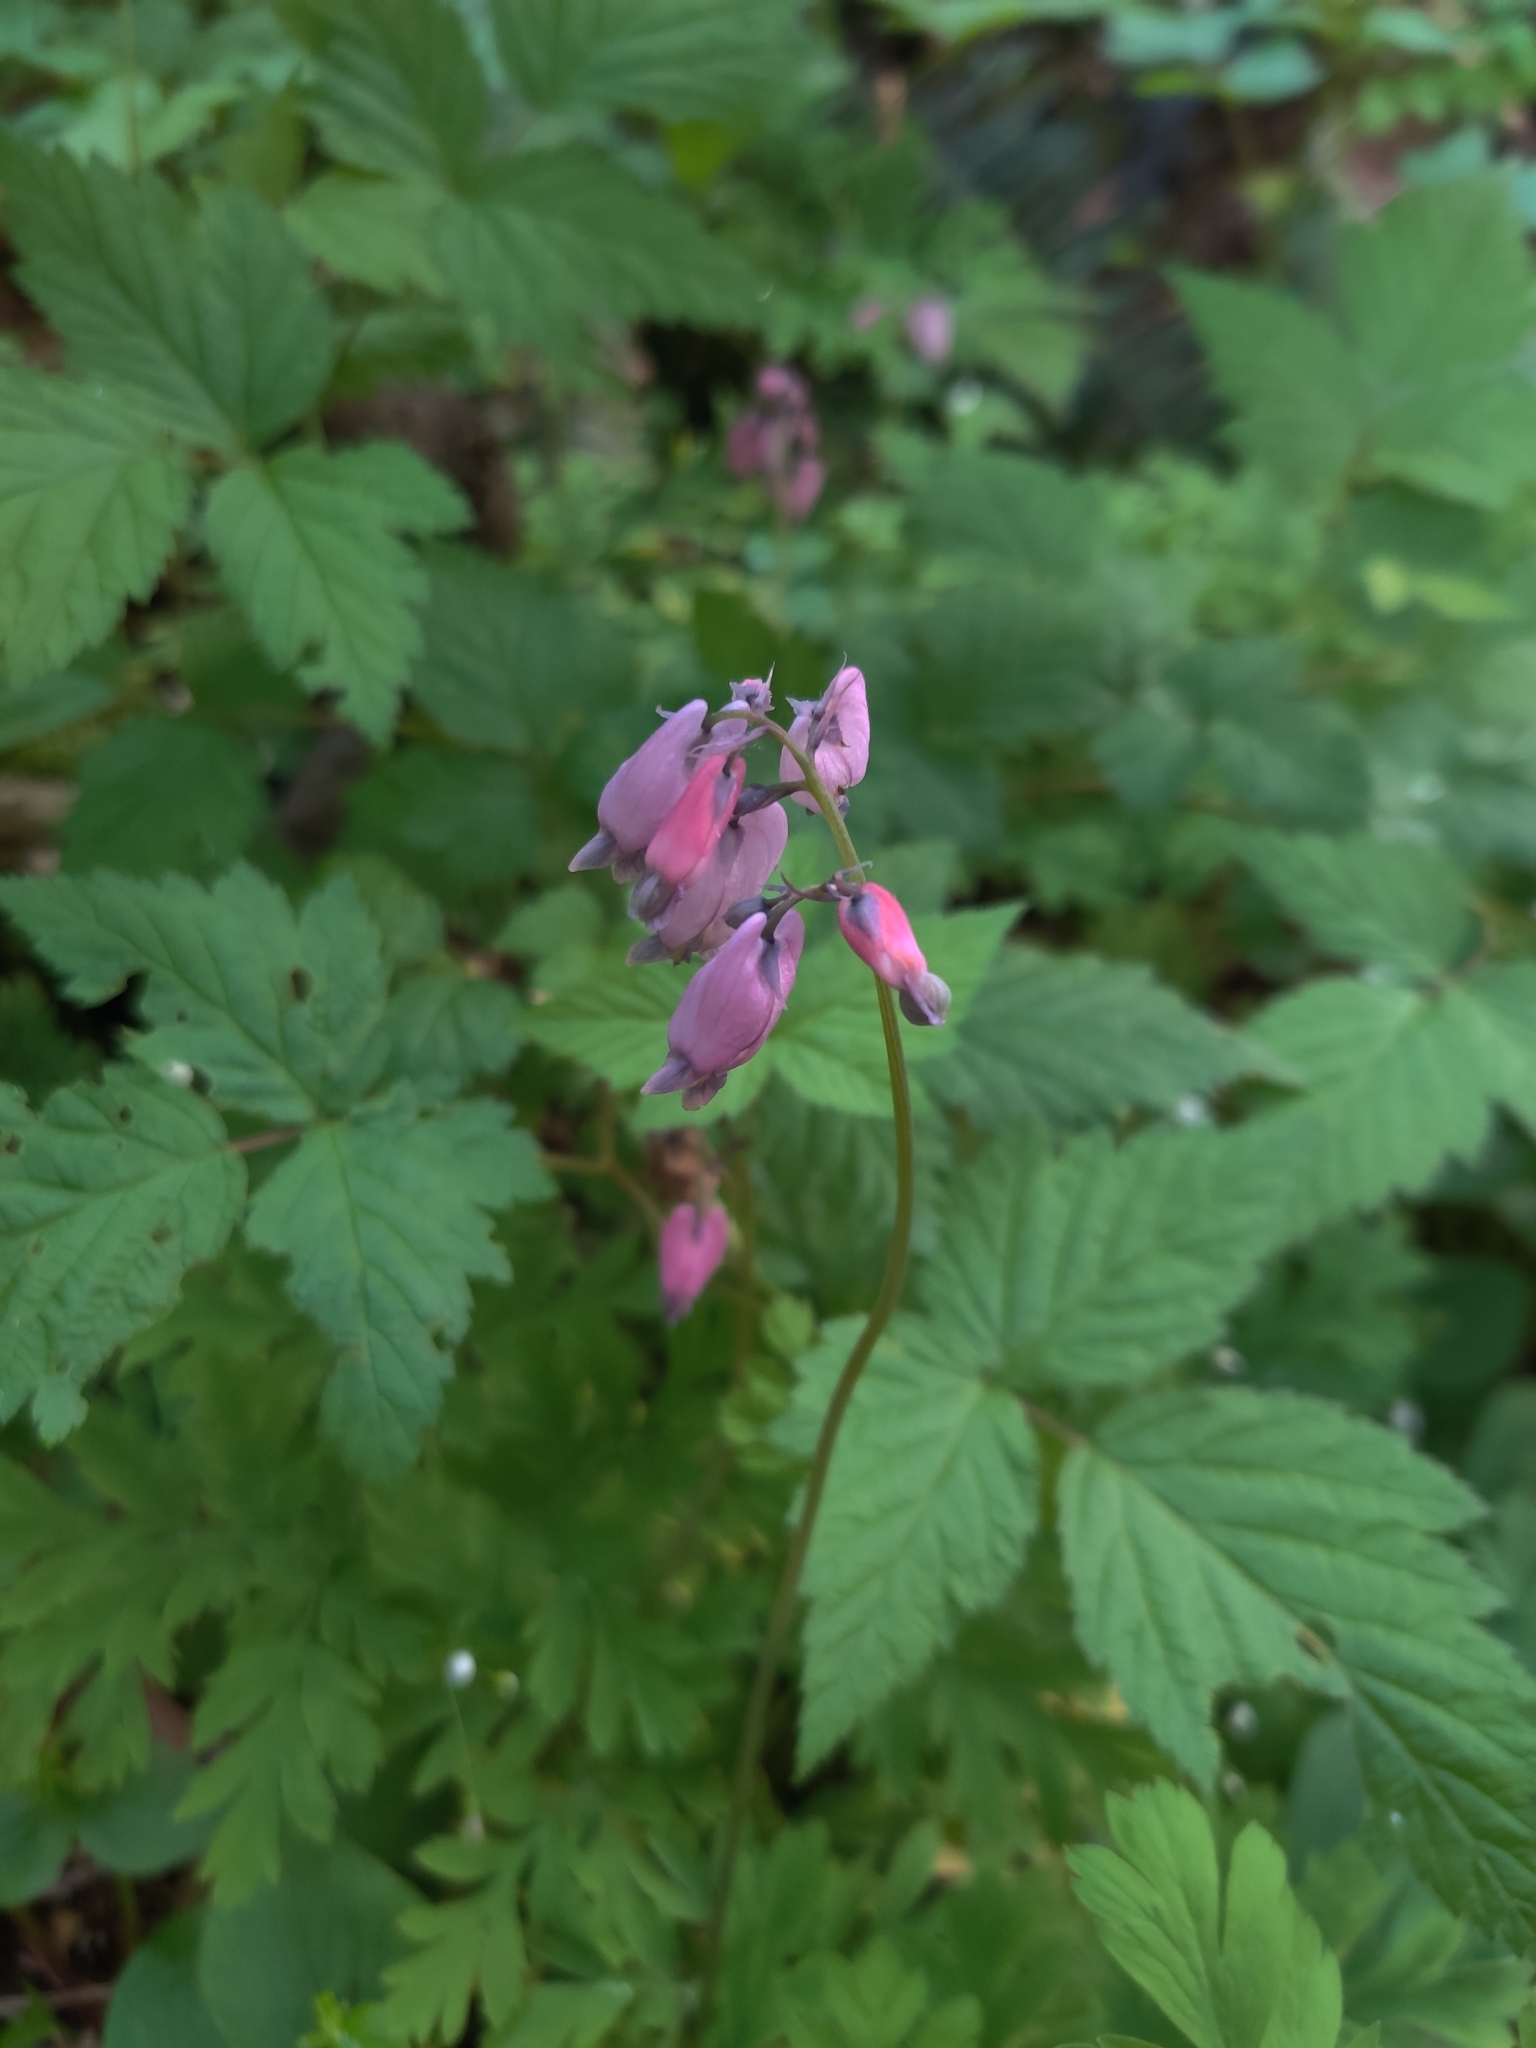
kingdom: Plantae
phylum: Tracheophyta
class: Magnoliopsida
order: Ranunculales
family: Papaveraceae
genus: Dicentra
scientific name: Dicentra formosa
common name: Bleeding-heart
